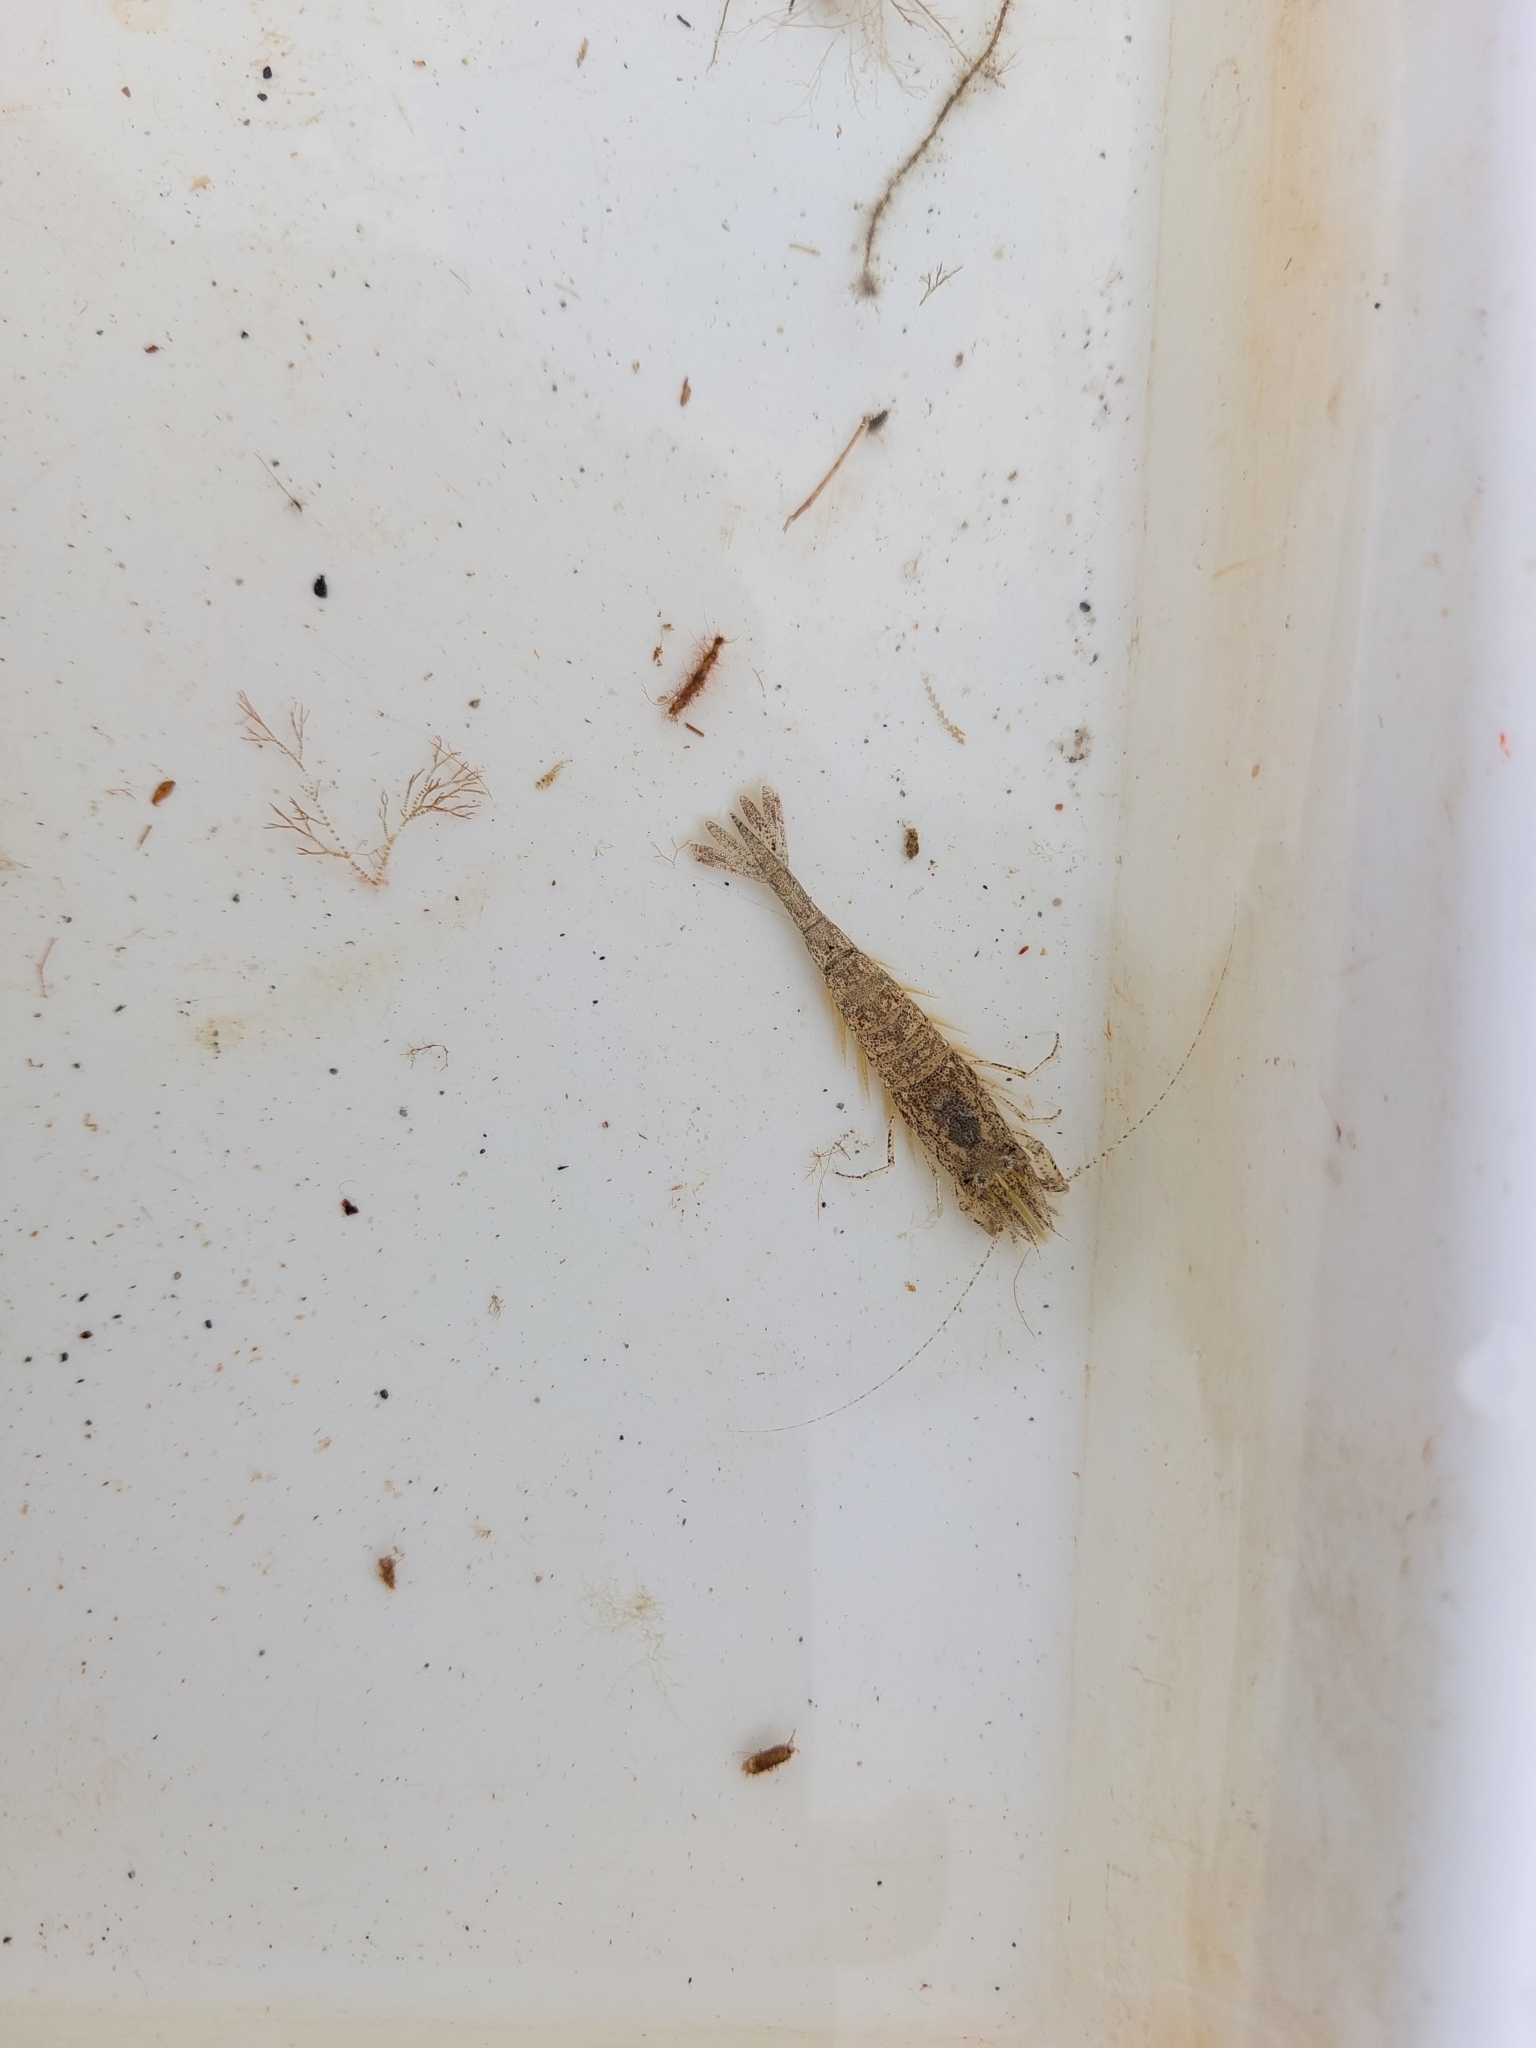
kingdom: Animalia
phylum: Arthropoda
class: Malacostraca
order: Decapoda
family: Crangonidae
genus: Crangon
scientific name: Crangon crangon
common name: Brown shrimp
